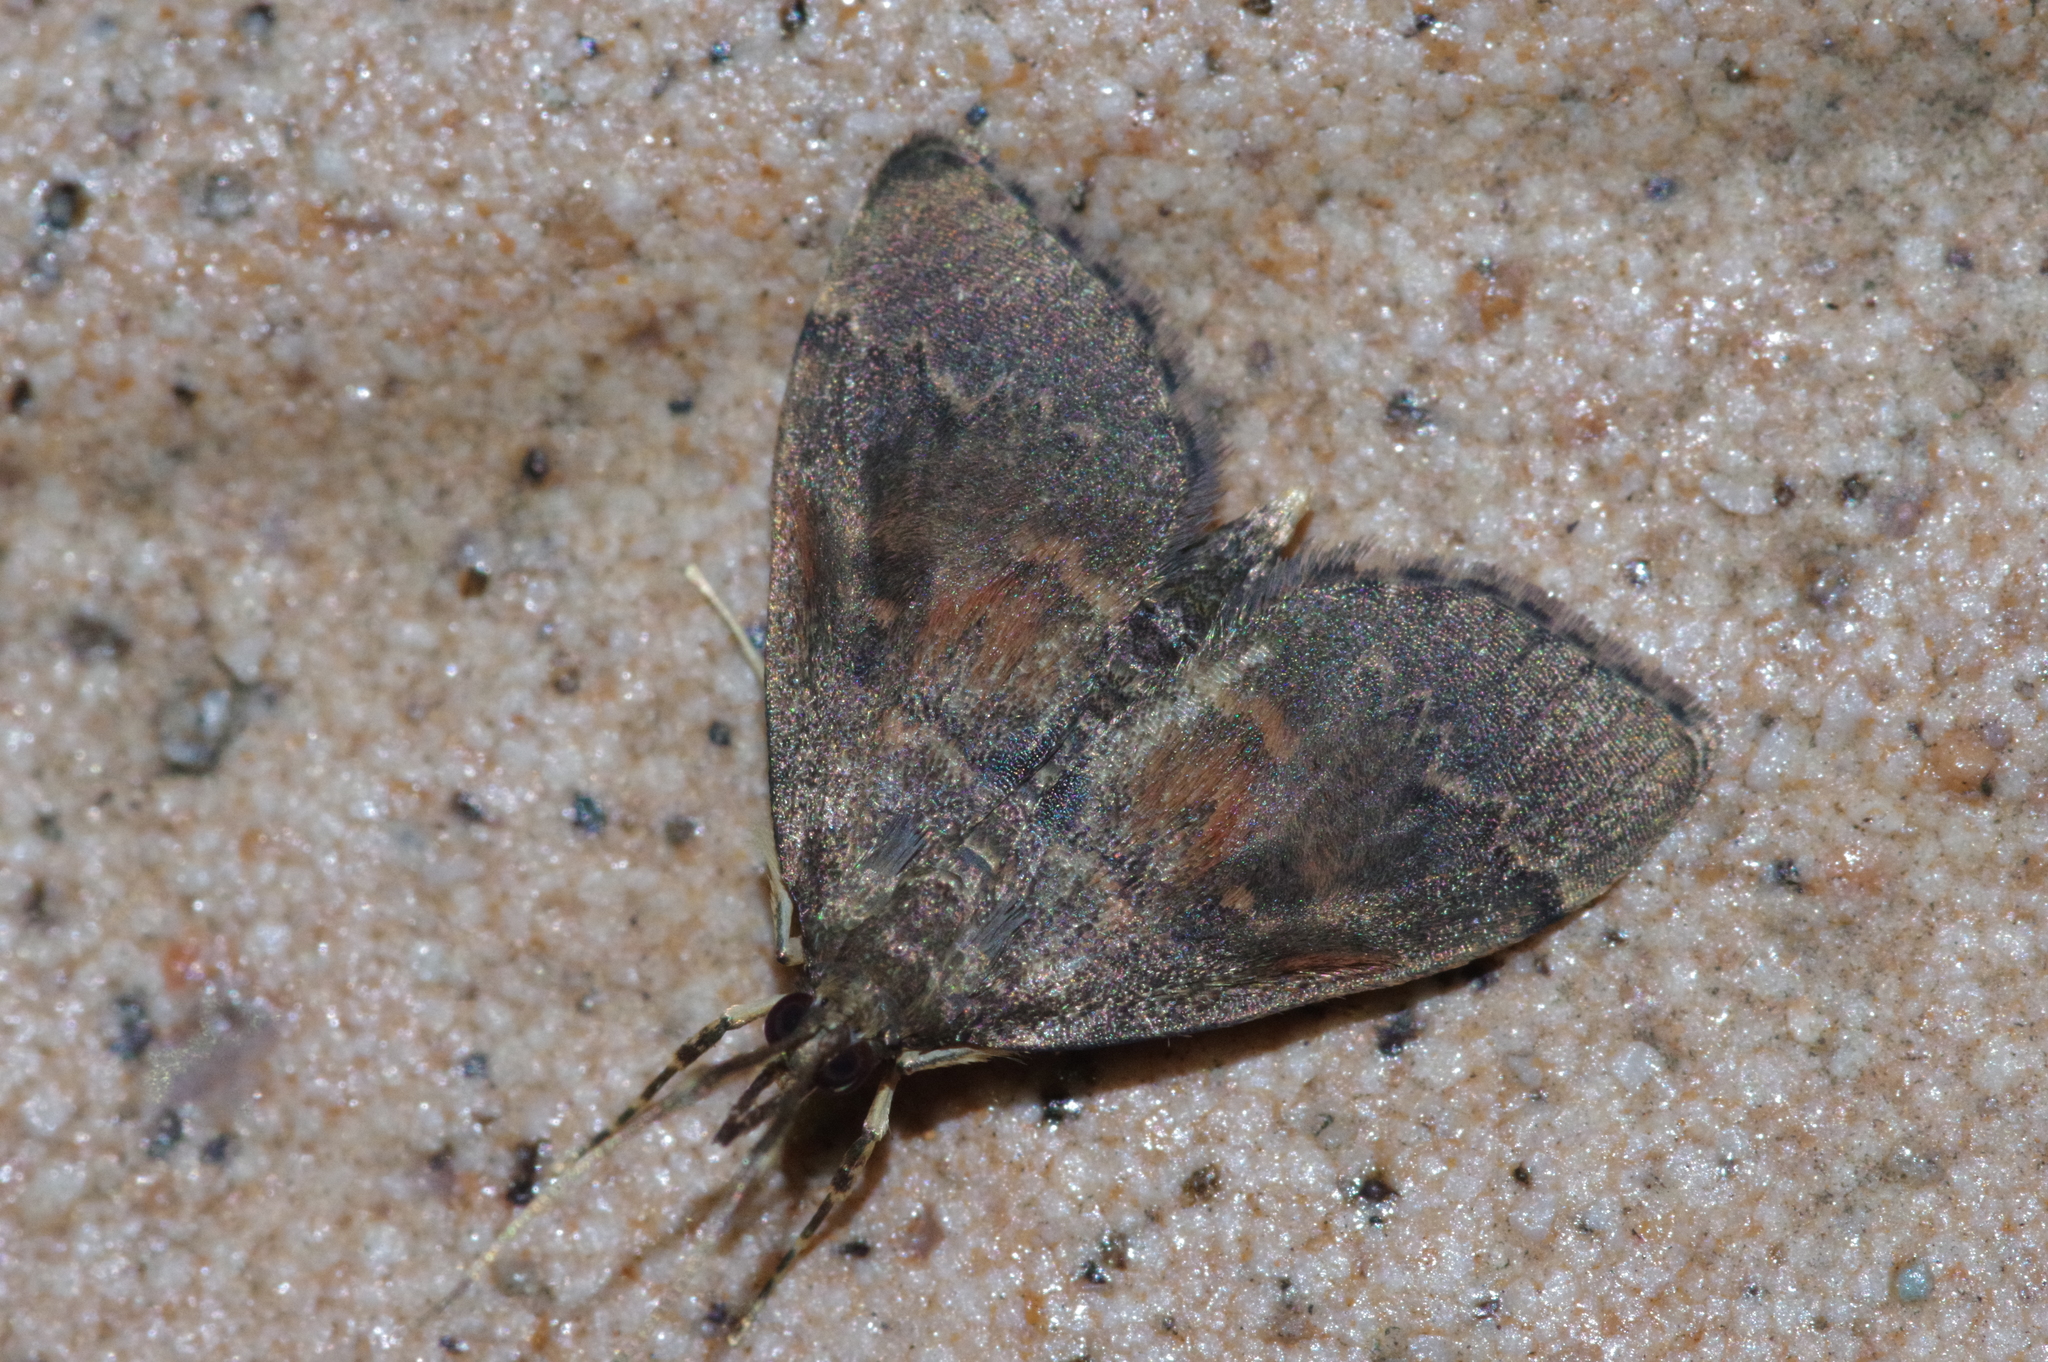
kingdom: Animalia
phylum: Arthropoda
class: Insecta
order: Lepidoptera
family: Crambidae
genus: Camptomastix
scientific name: Camptomastix hisbonalis
